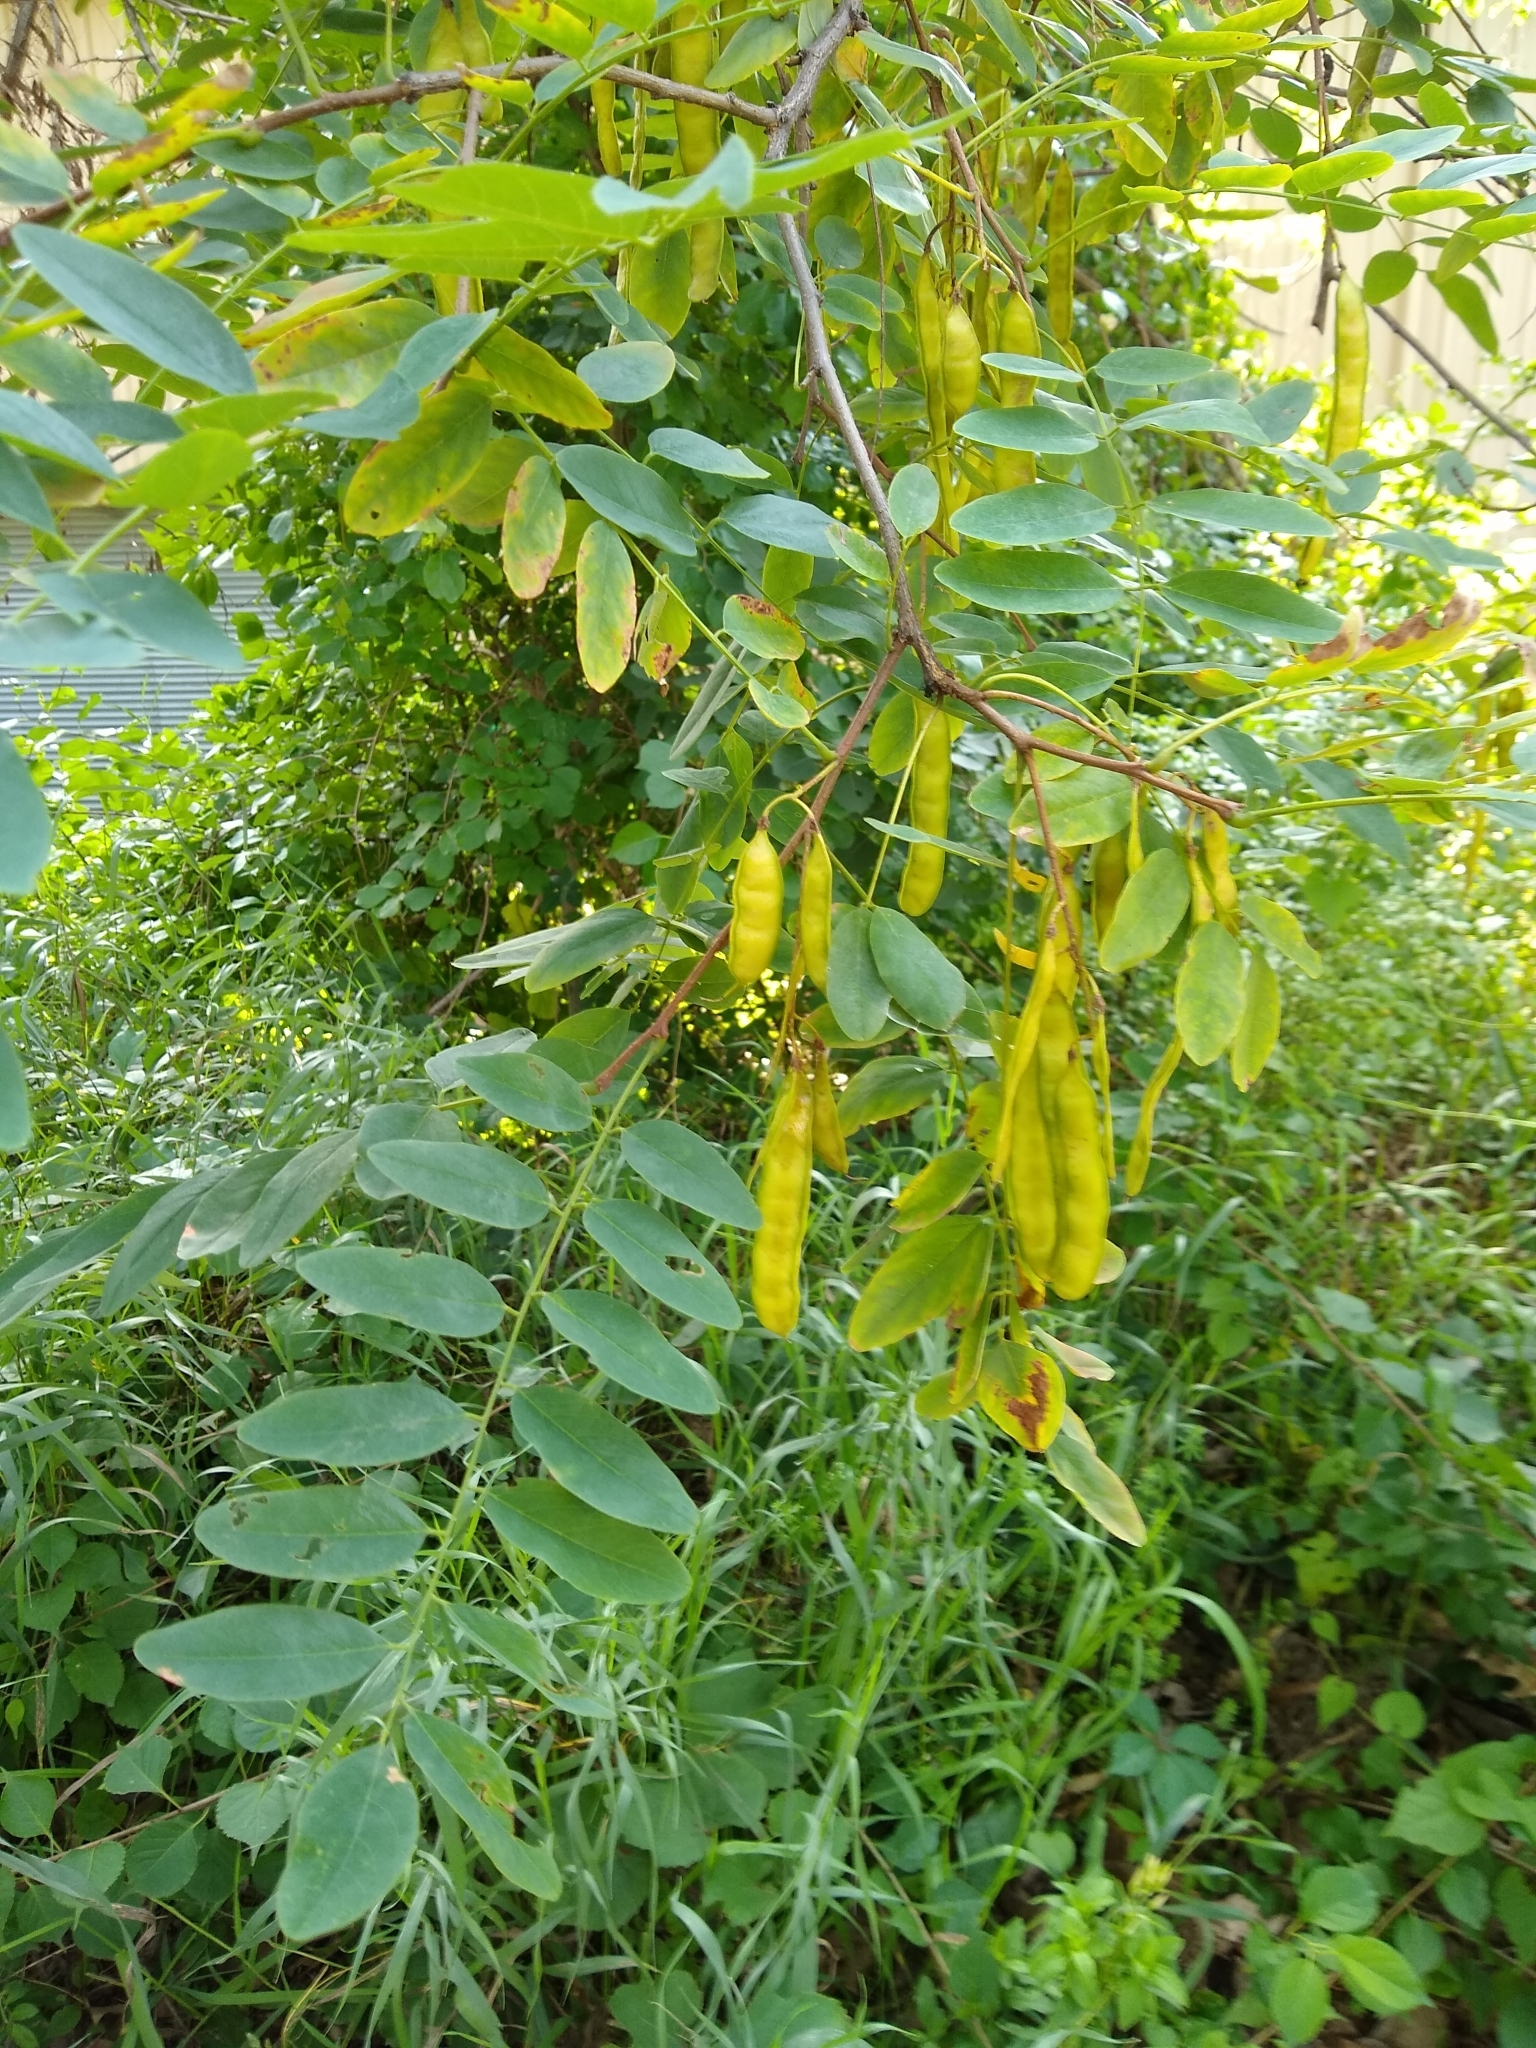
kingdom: Plantae
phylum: Tracheophyta
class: Magnoliopsida
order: Fabales
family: Fabaceae
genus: Robinia
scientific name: Robinia pseudoacacia
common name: Black locust
